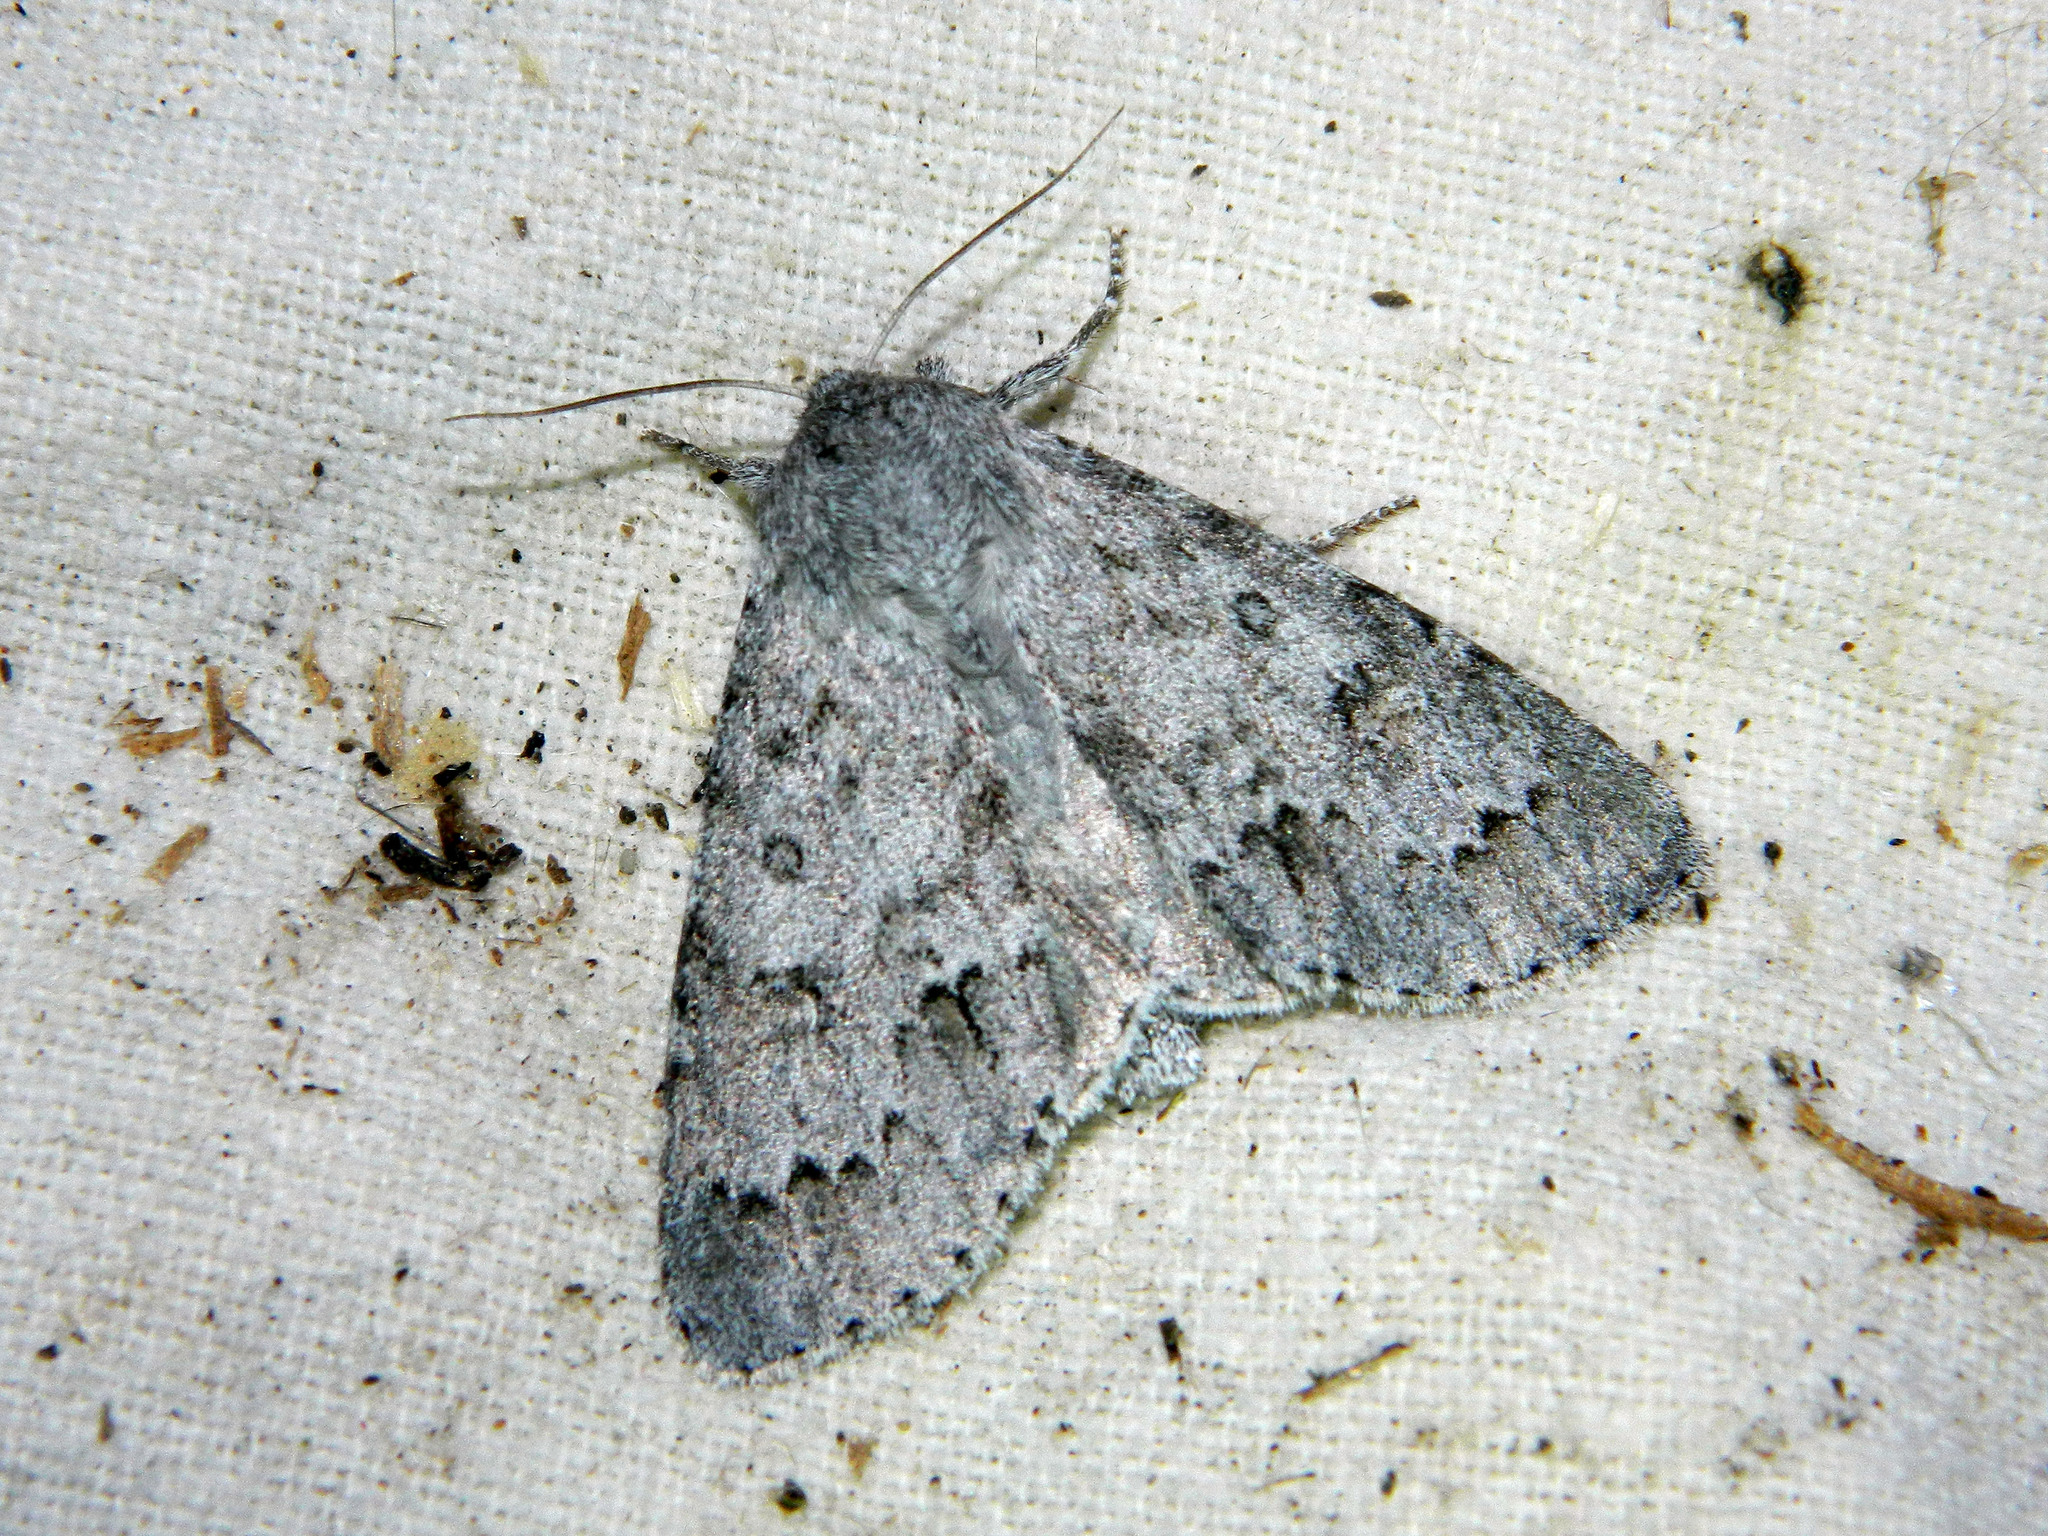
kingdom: Animalia
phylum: Arthropoda
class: Insecta
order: Lepidoptera
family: Noctuidae
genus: Acronicta
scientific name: Acronicta insita
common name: Large gray dagger
